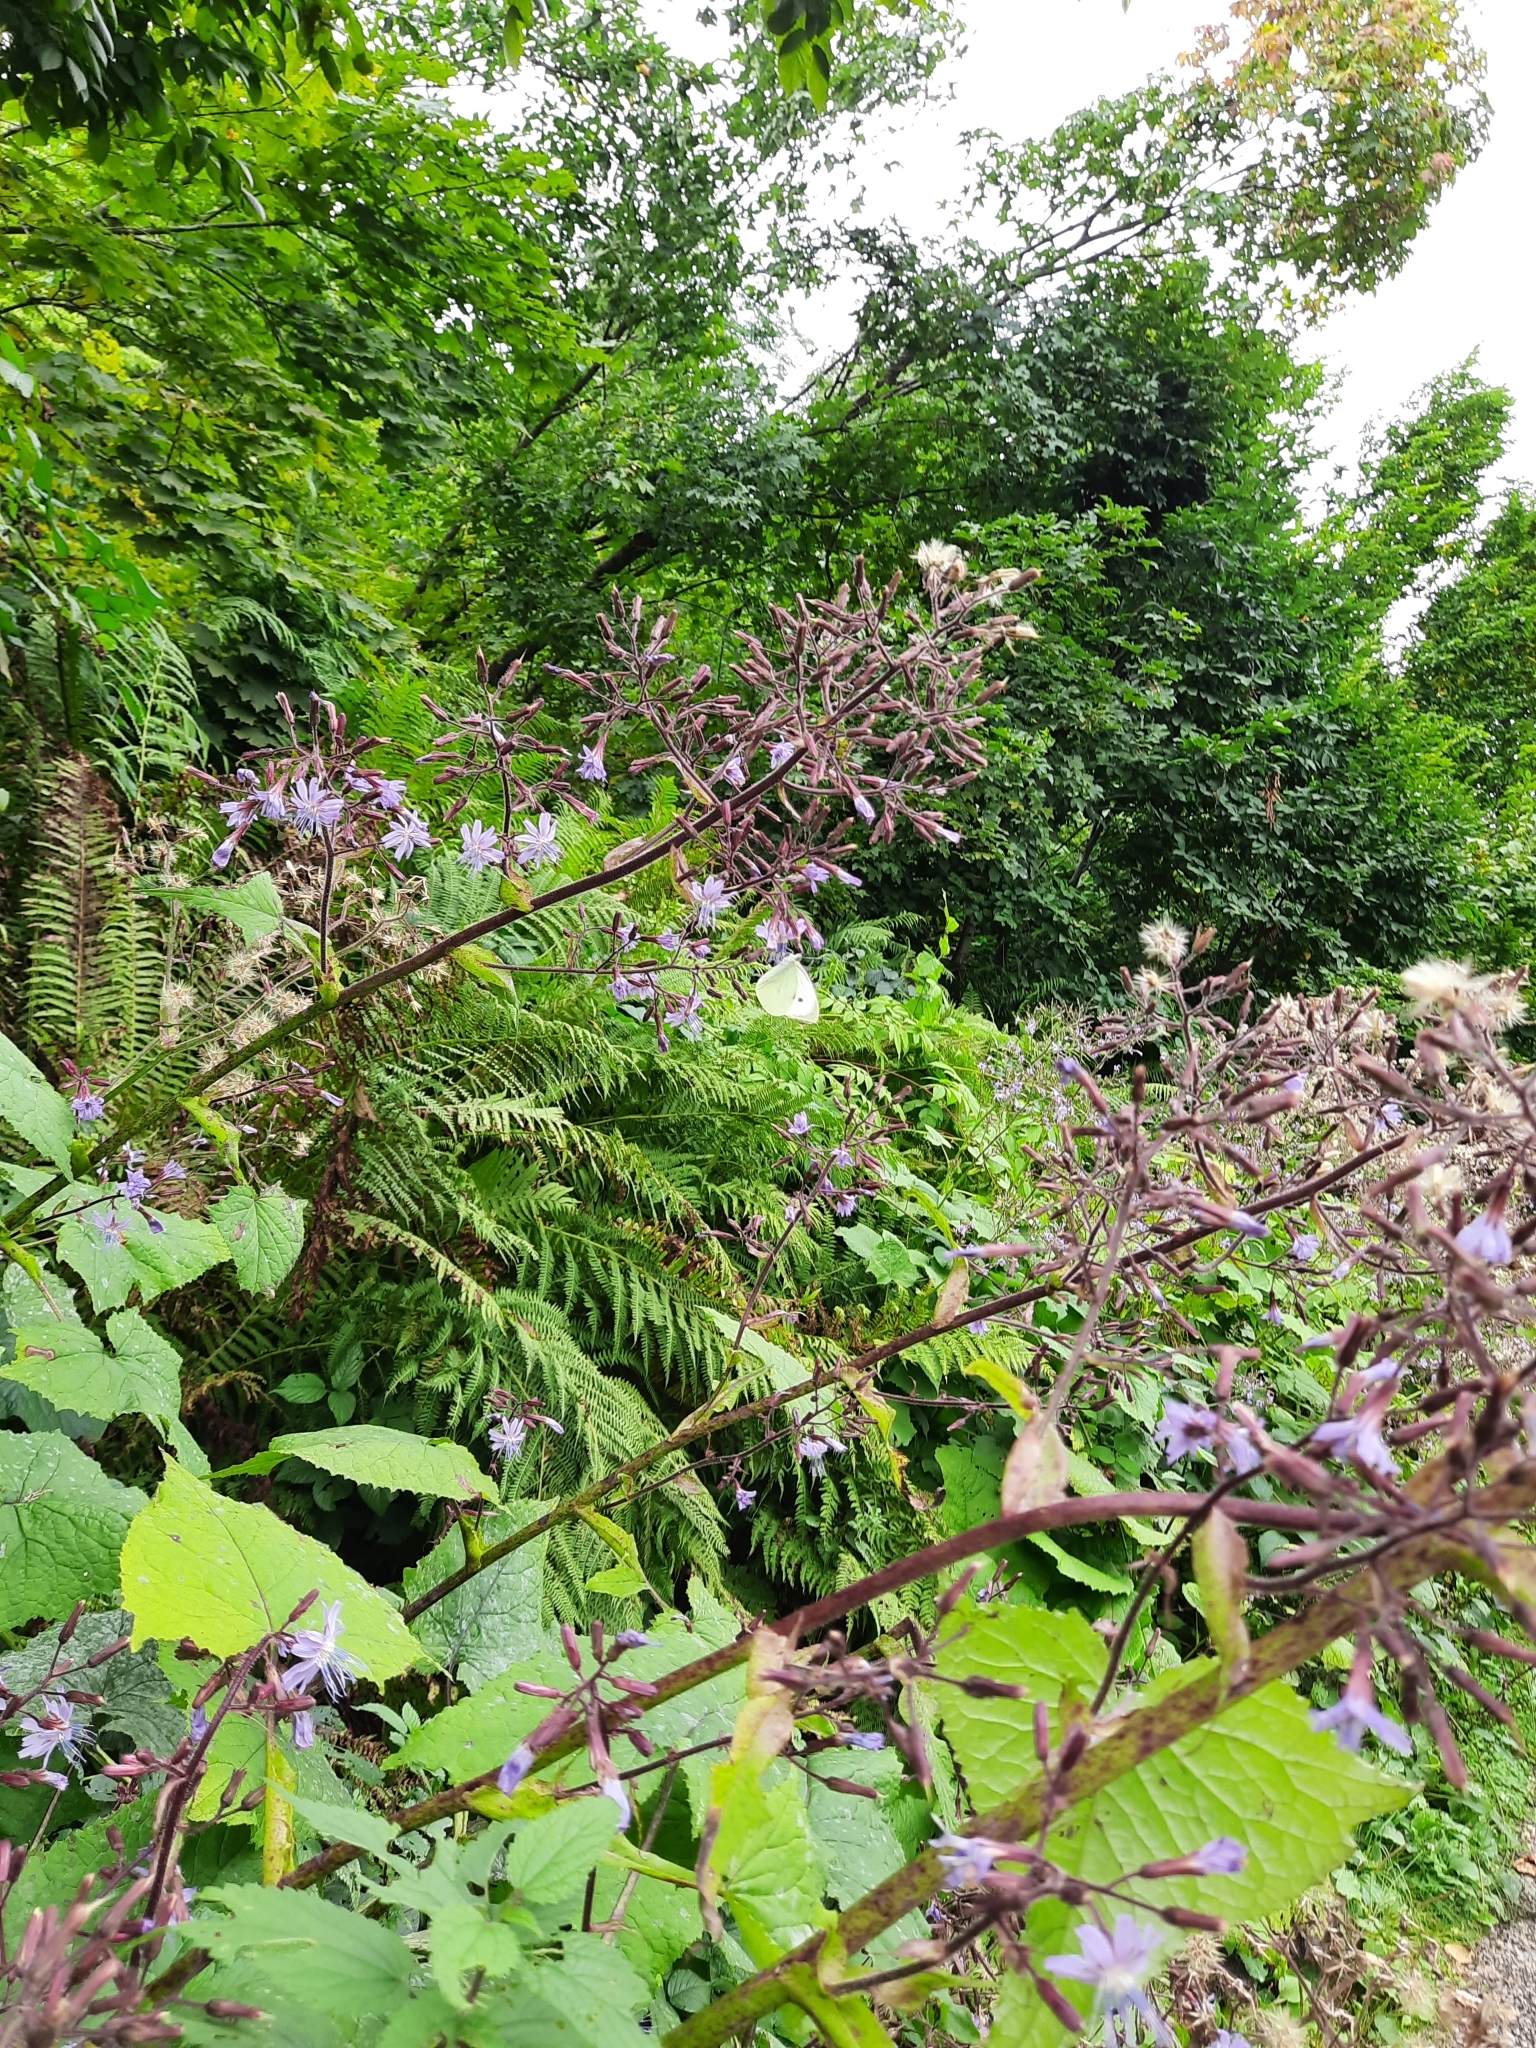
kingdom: Plantae
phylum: Tracheophyta
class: Magnoliopsida
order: Asterales
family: Asteraceae
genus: Cicerbita
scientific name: Cicerbita petiolata
